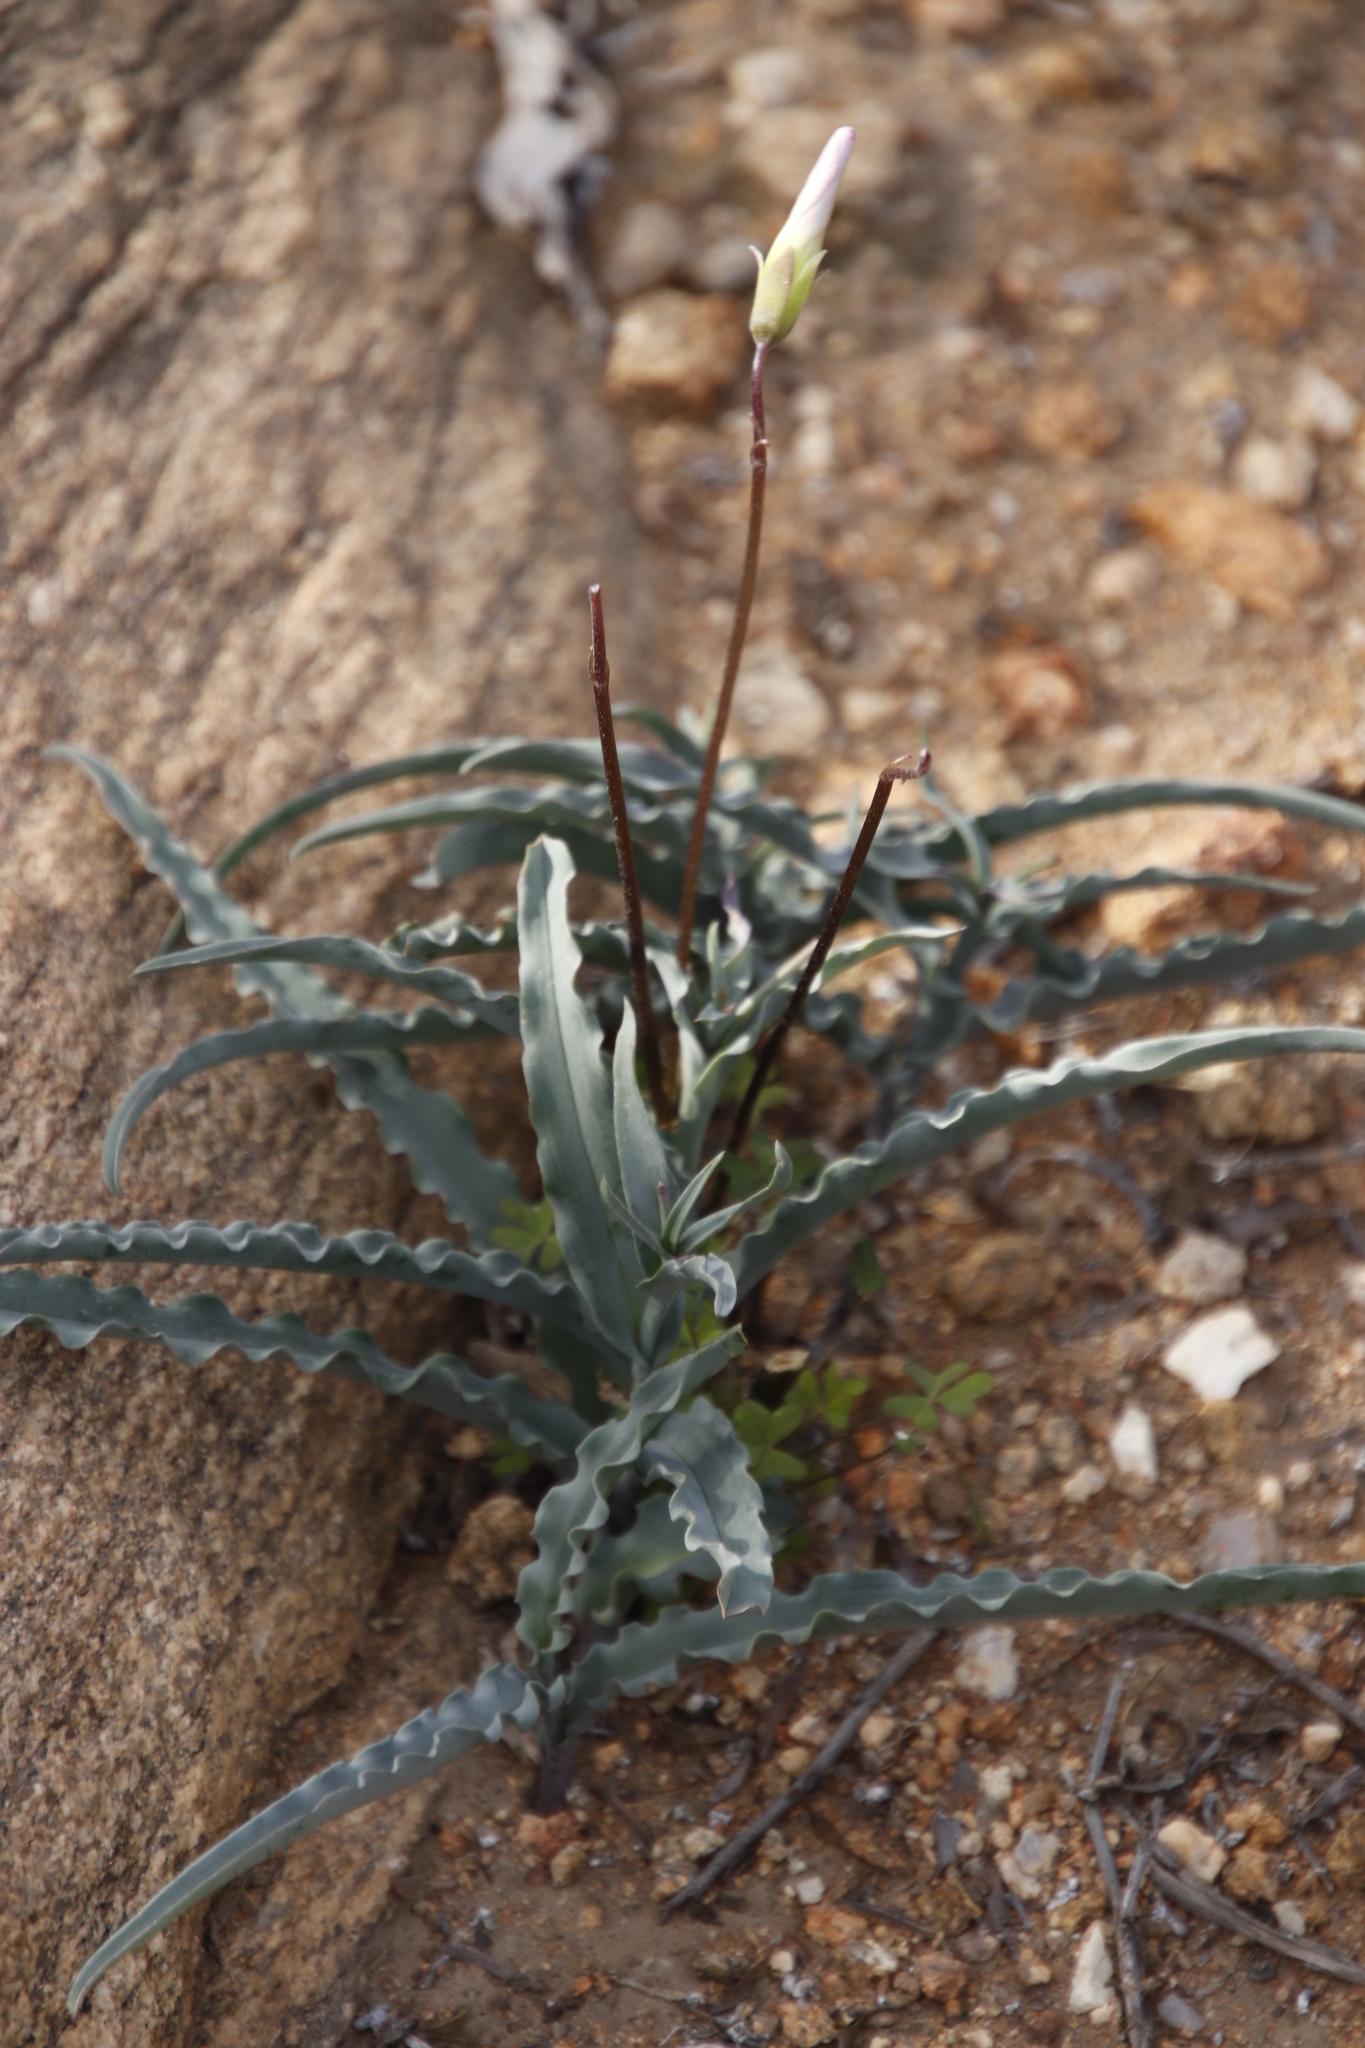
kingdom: Plantae
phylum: Tracheophyta
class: Magnoliopsida
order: Oxalidales
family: Oxalidaceae
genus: Oxalis
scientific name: Oxalis comosa
